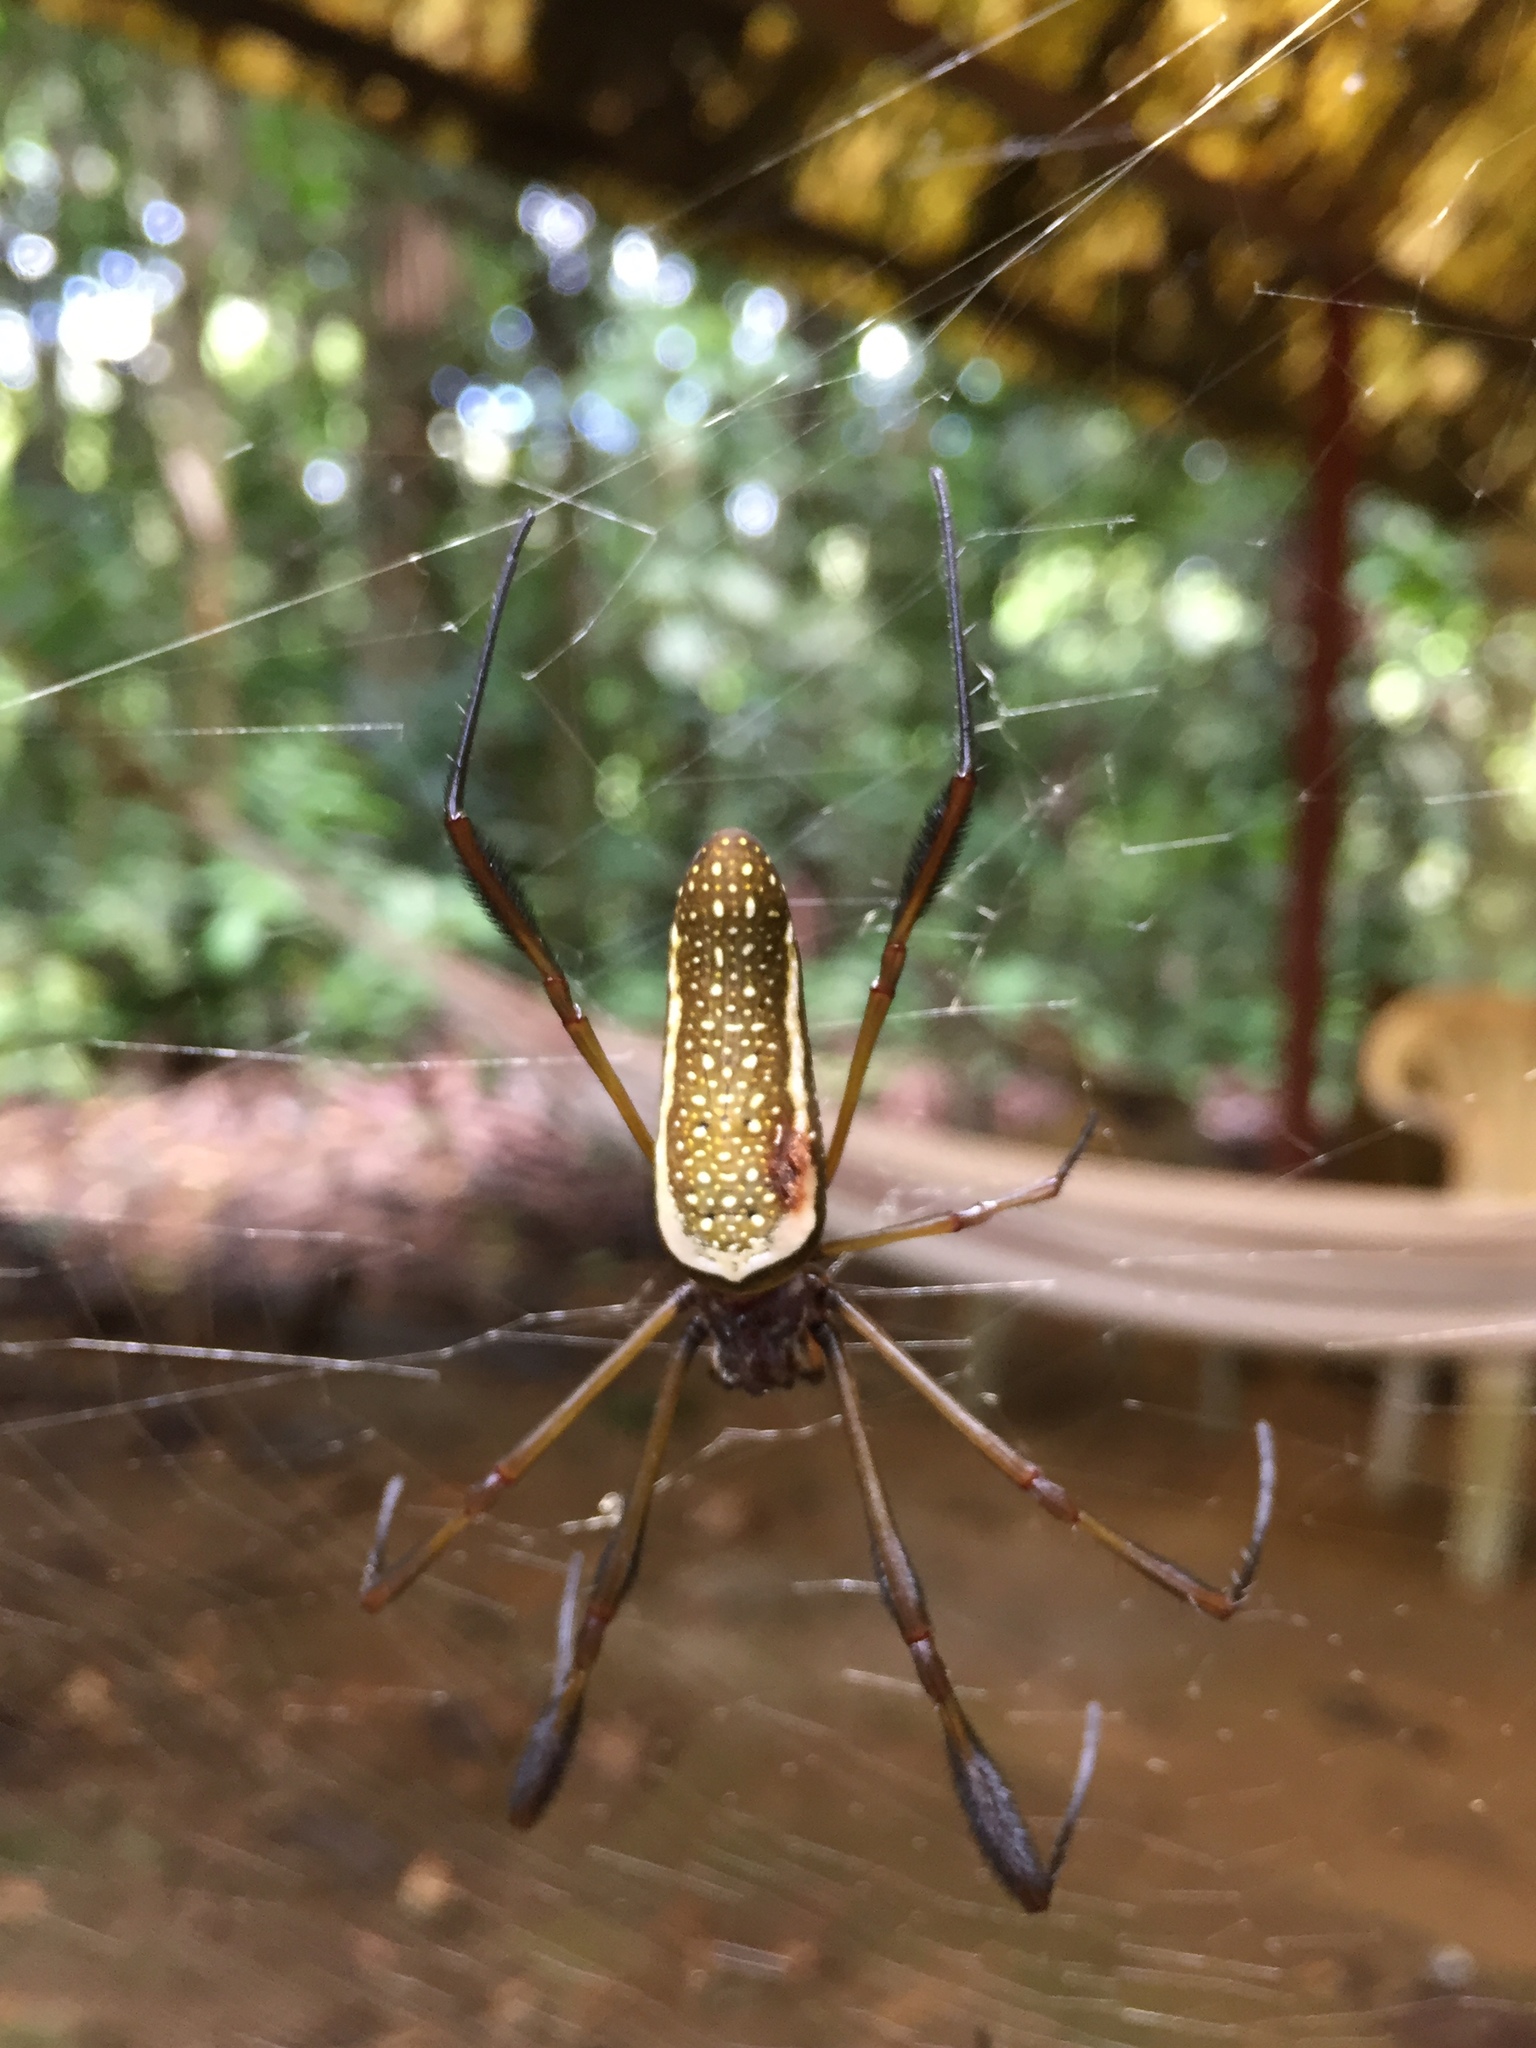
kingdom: Animalia
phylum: Arthropoda
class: Arachnida
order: Araneae
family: Araneidae
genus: Trichonephila
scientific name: Trichonephila clavipes
